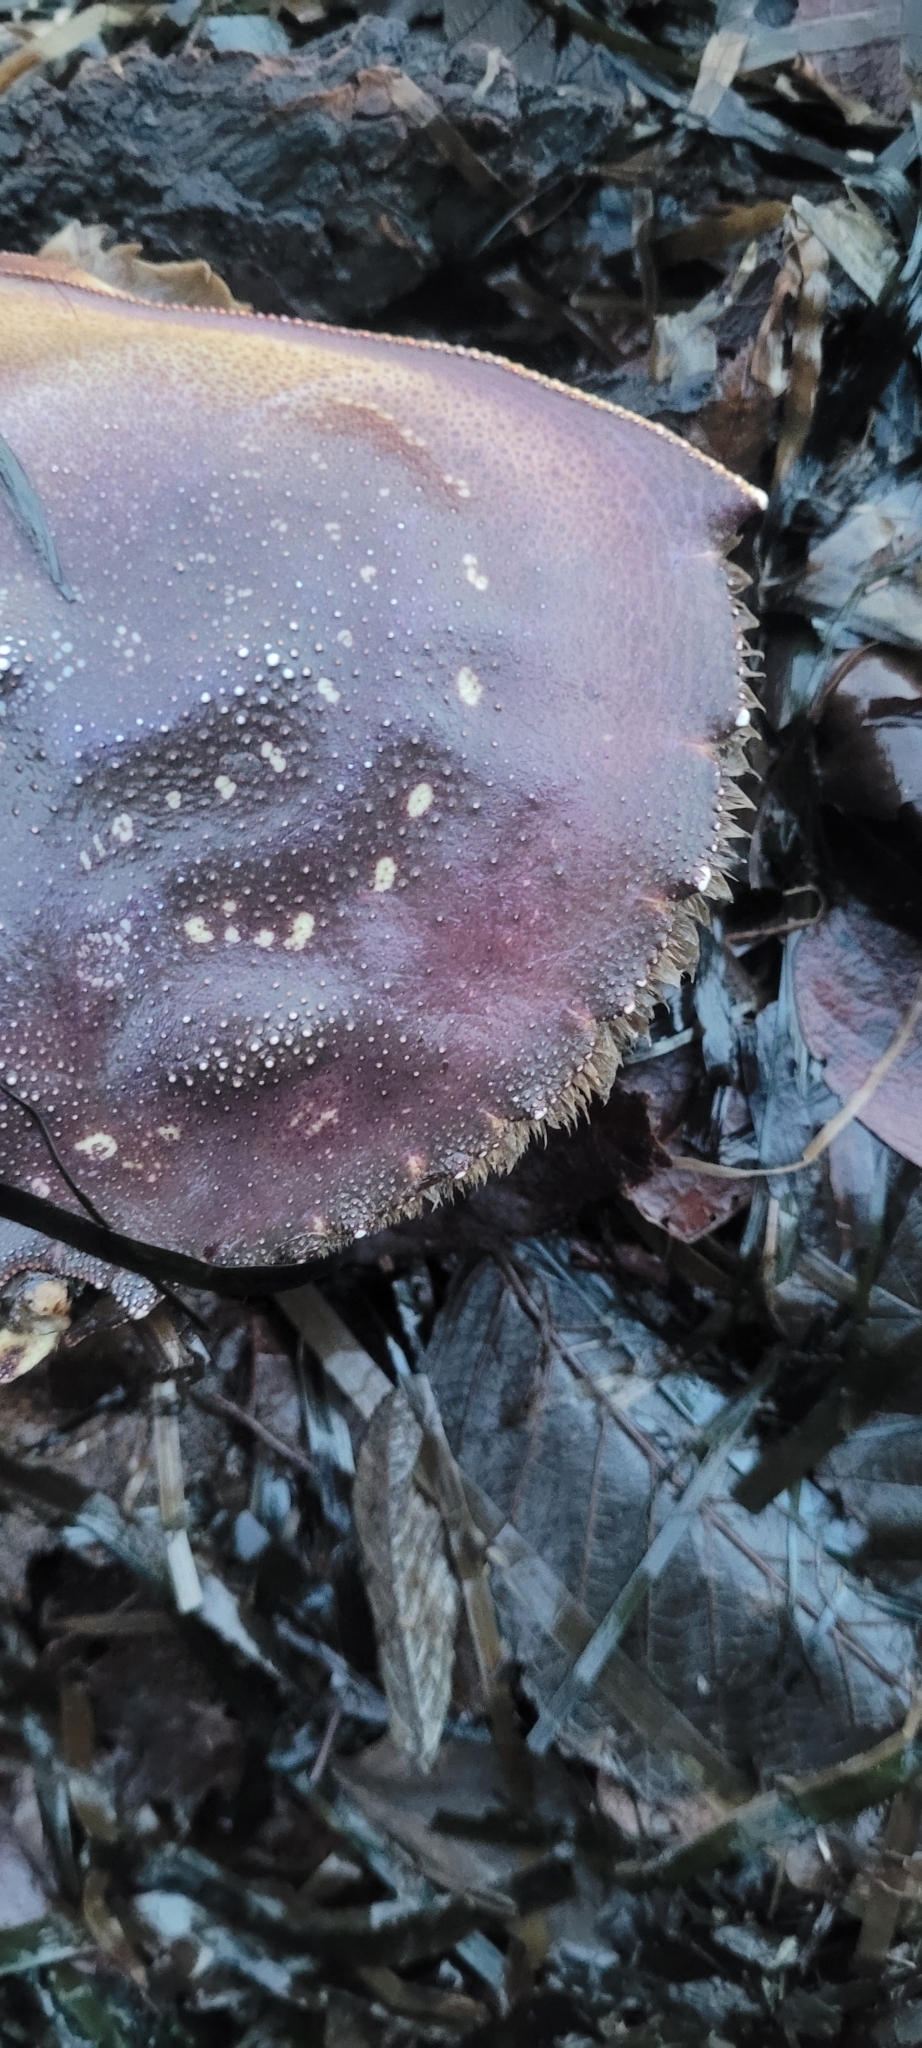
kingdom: Animalia
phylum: Arthropoda
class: Malacostraca
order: Decapoda
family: Cancridae
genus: Metacarcinus
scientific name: Metacarcinus magister
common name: Californian crab
